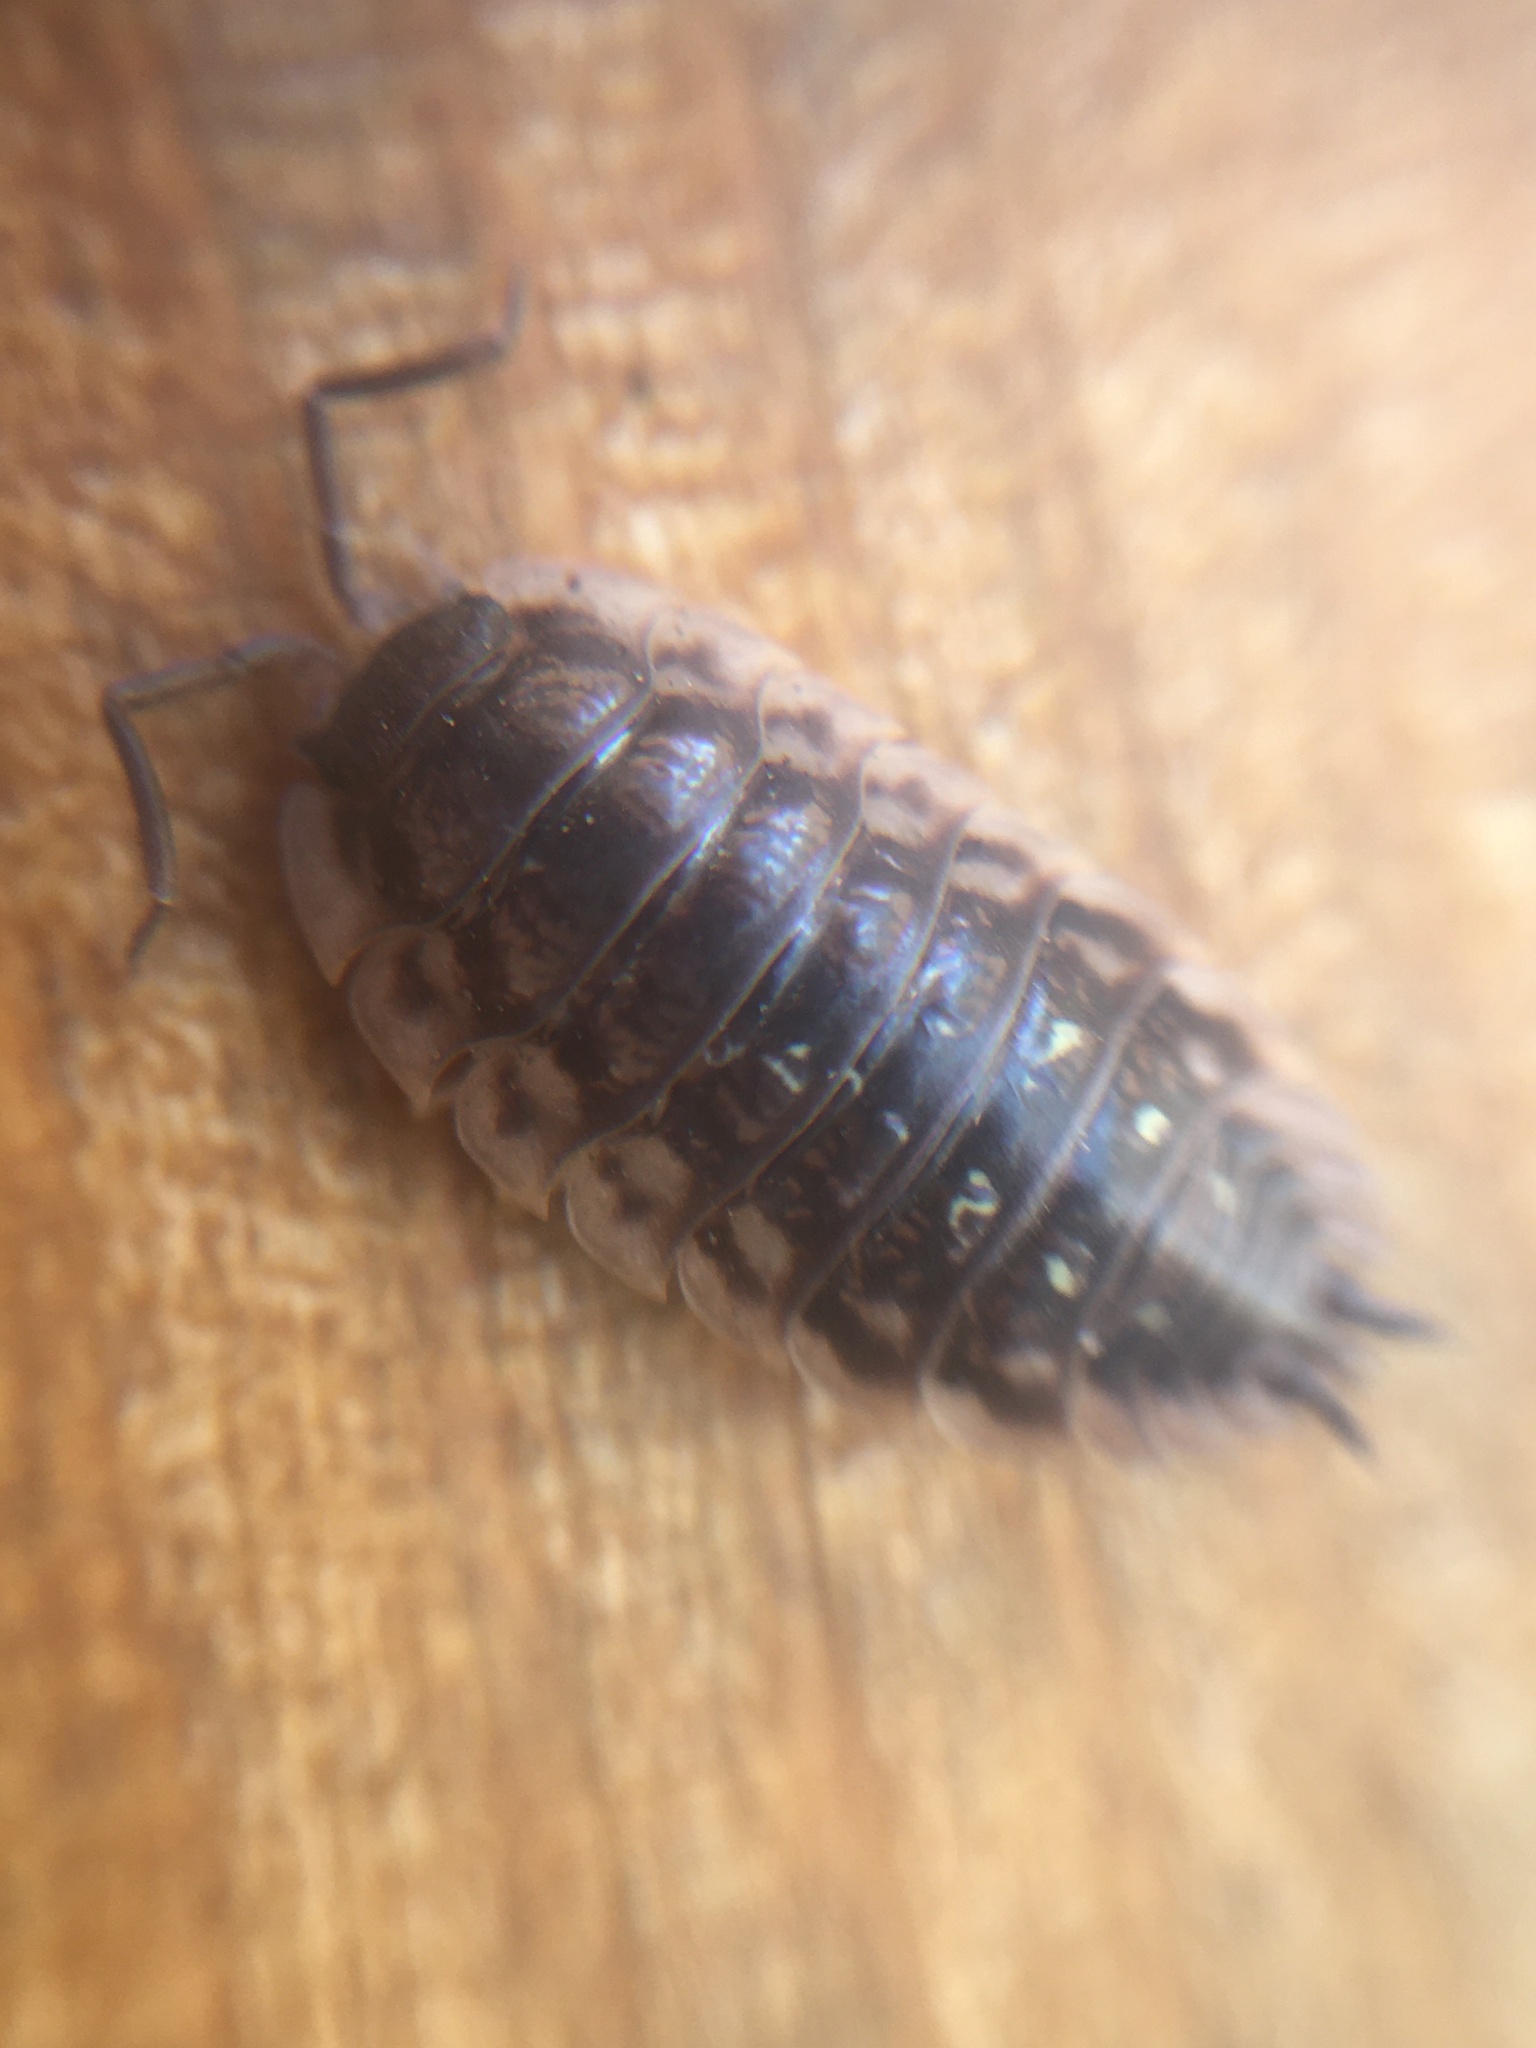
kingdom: Animalia
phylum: Arthropoda
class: Malacostraca
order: Isopoda
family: Oniscidae
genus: Oniscus
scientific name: Oniscus asellus
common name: Common shiny woodlouse
